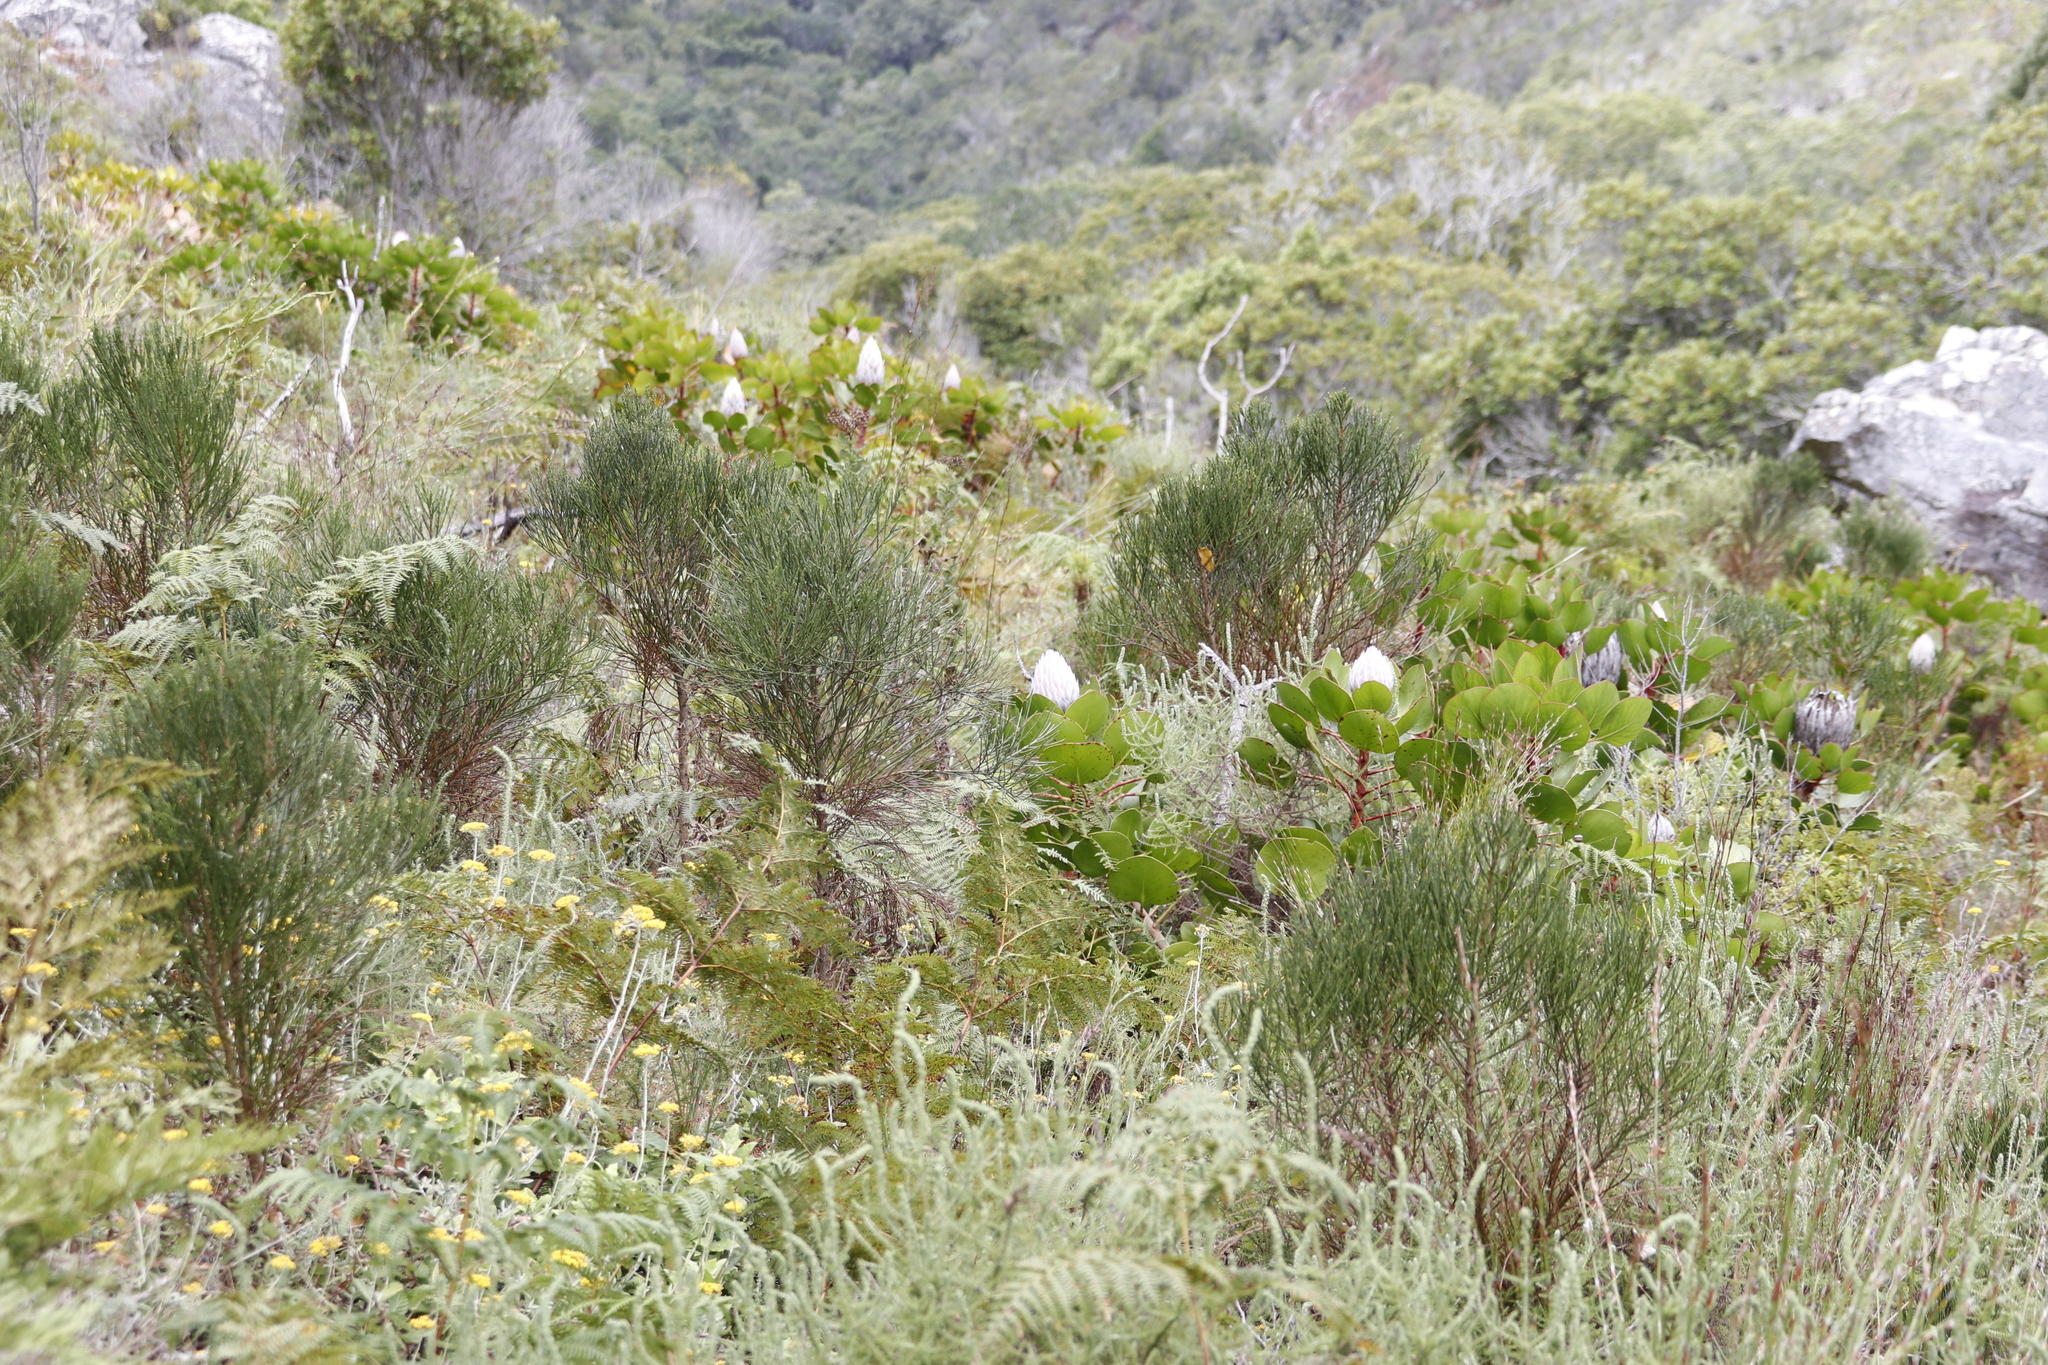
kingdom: Plantae
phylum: Tracheophyta
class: Magnoliopsida
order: Proteales
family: Proteaceae
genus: Protea
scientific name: Protea cynaroides
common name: King protea
